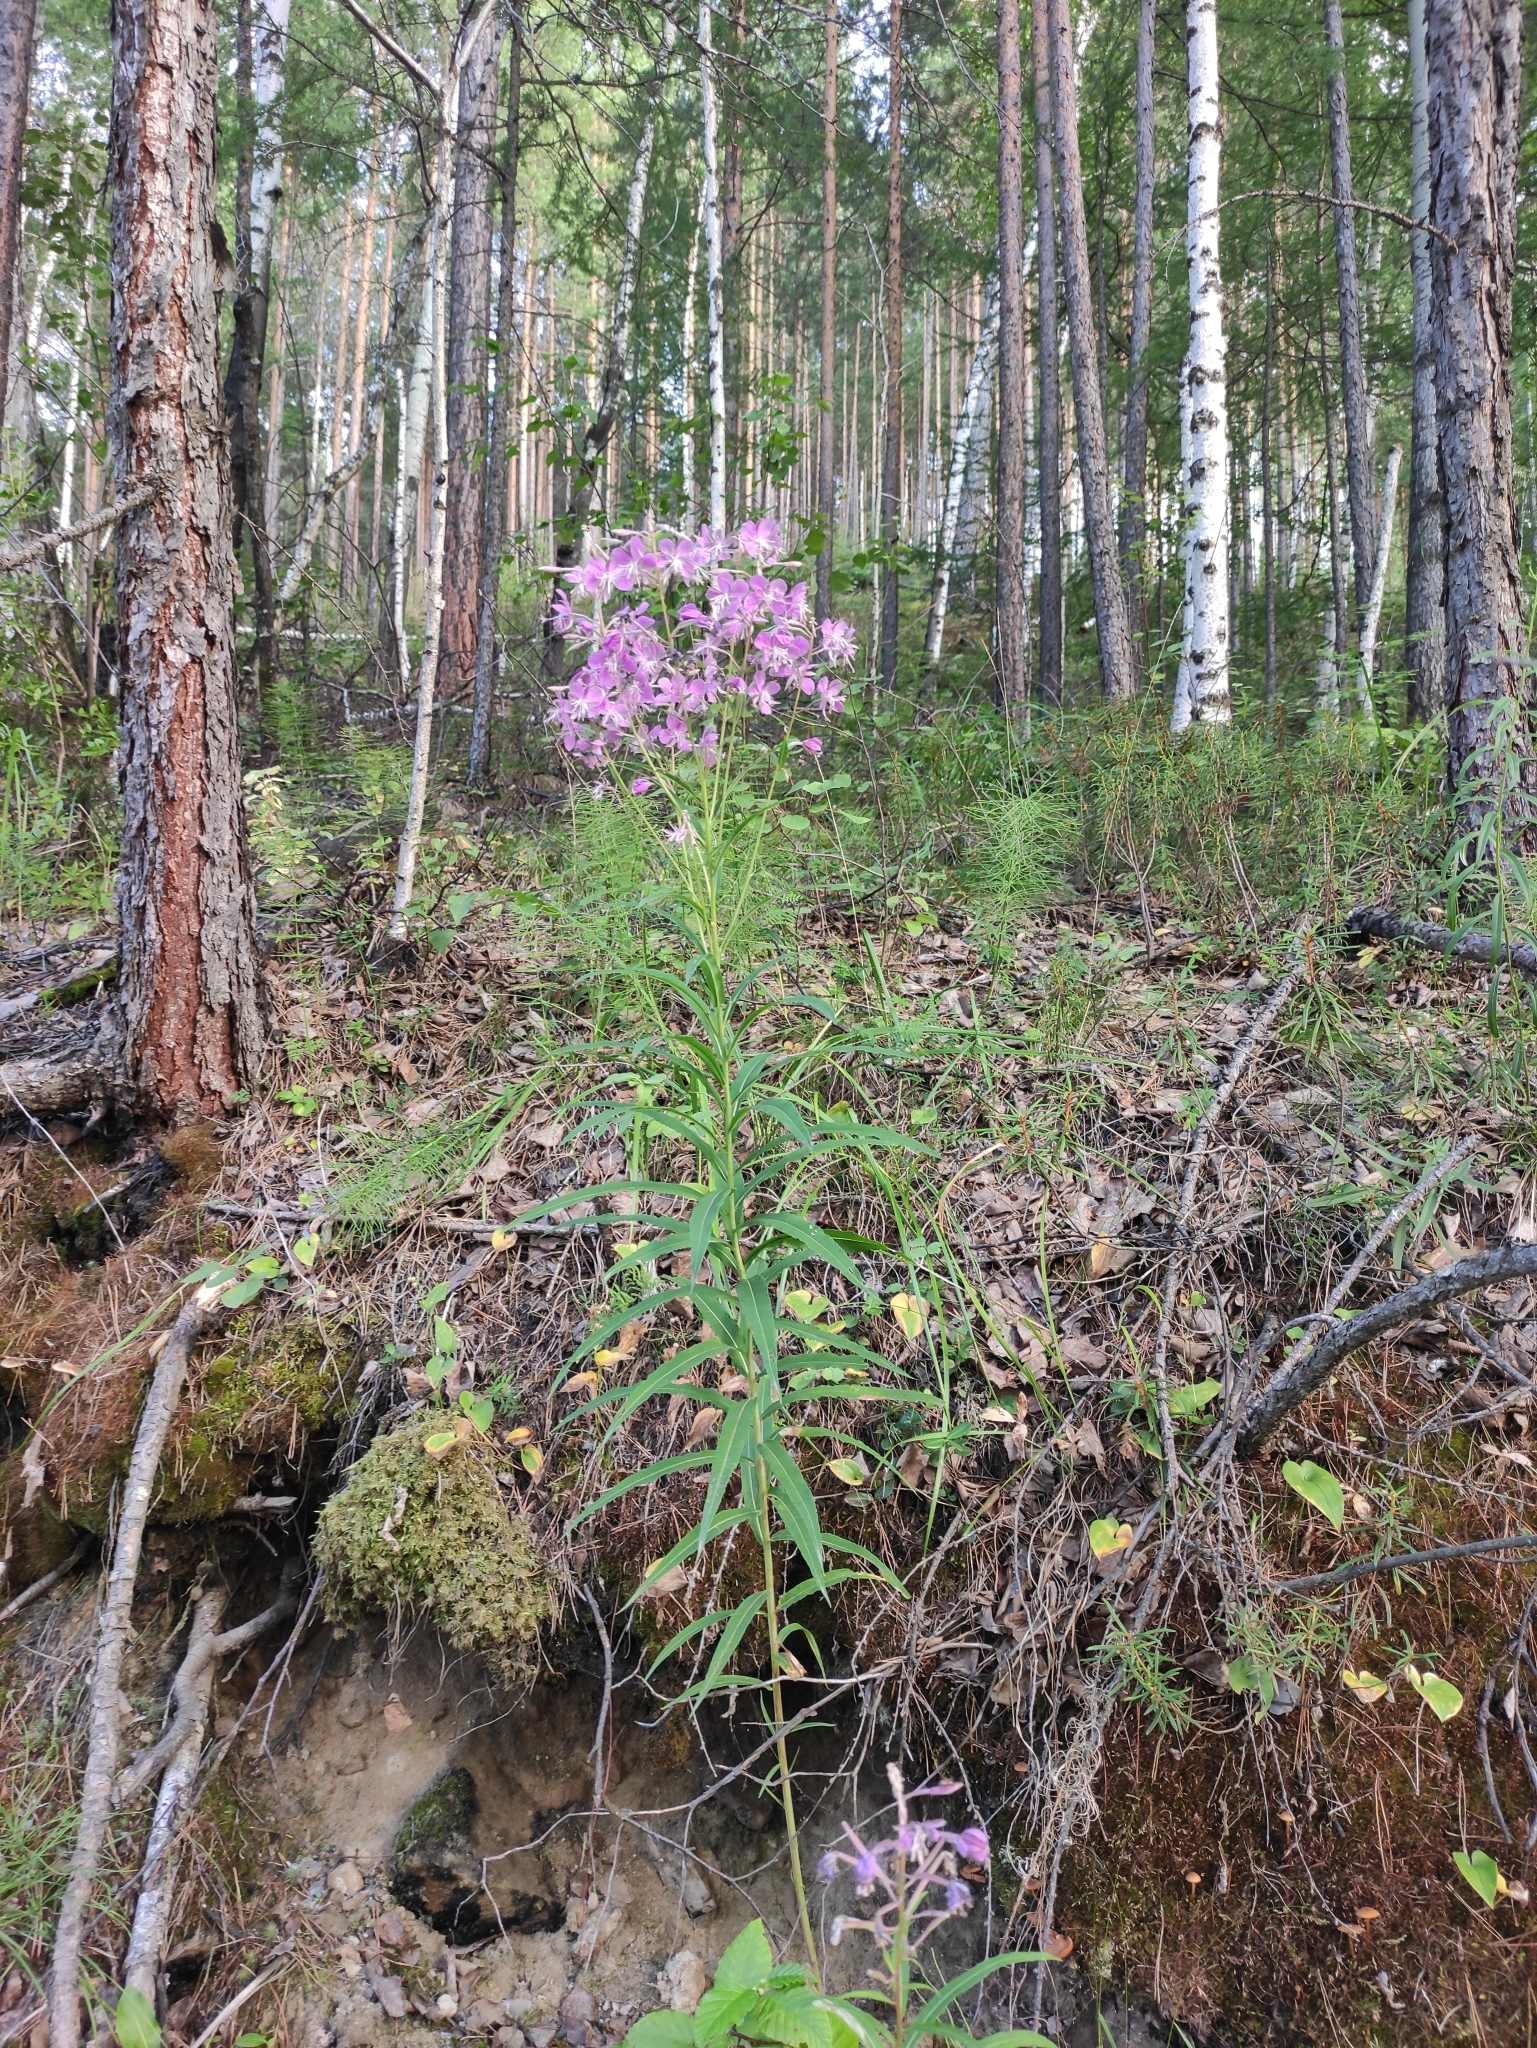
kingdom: Plantae
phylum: Tracheophyta
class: Magnoliopsida
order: Myrtales
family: Onagraceae
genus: Chamaenerion
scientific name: Chamaenerion angustifolium
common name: Fireweed
